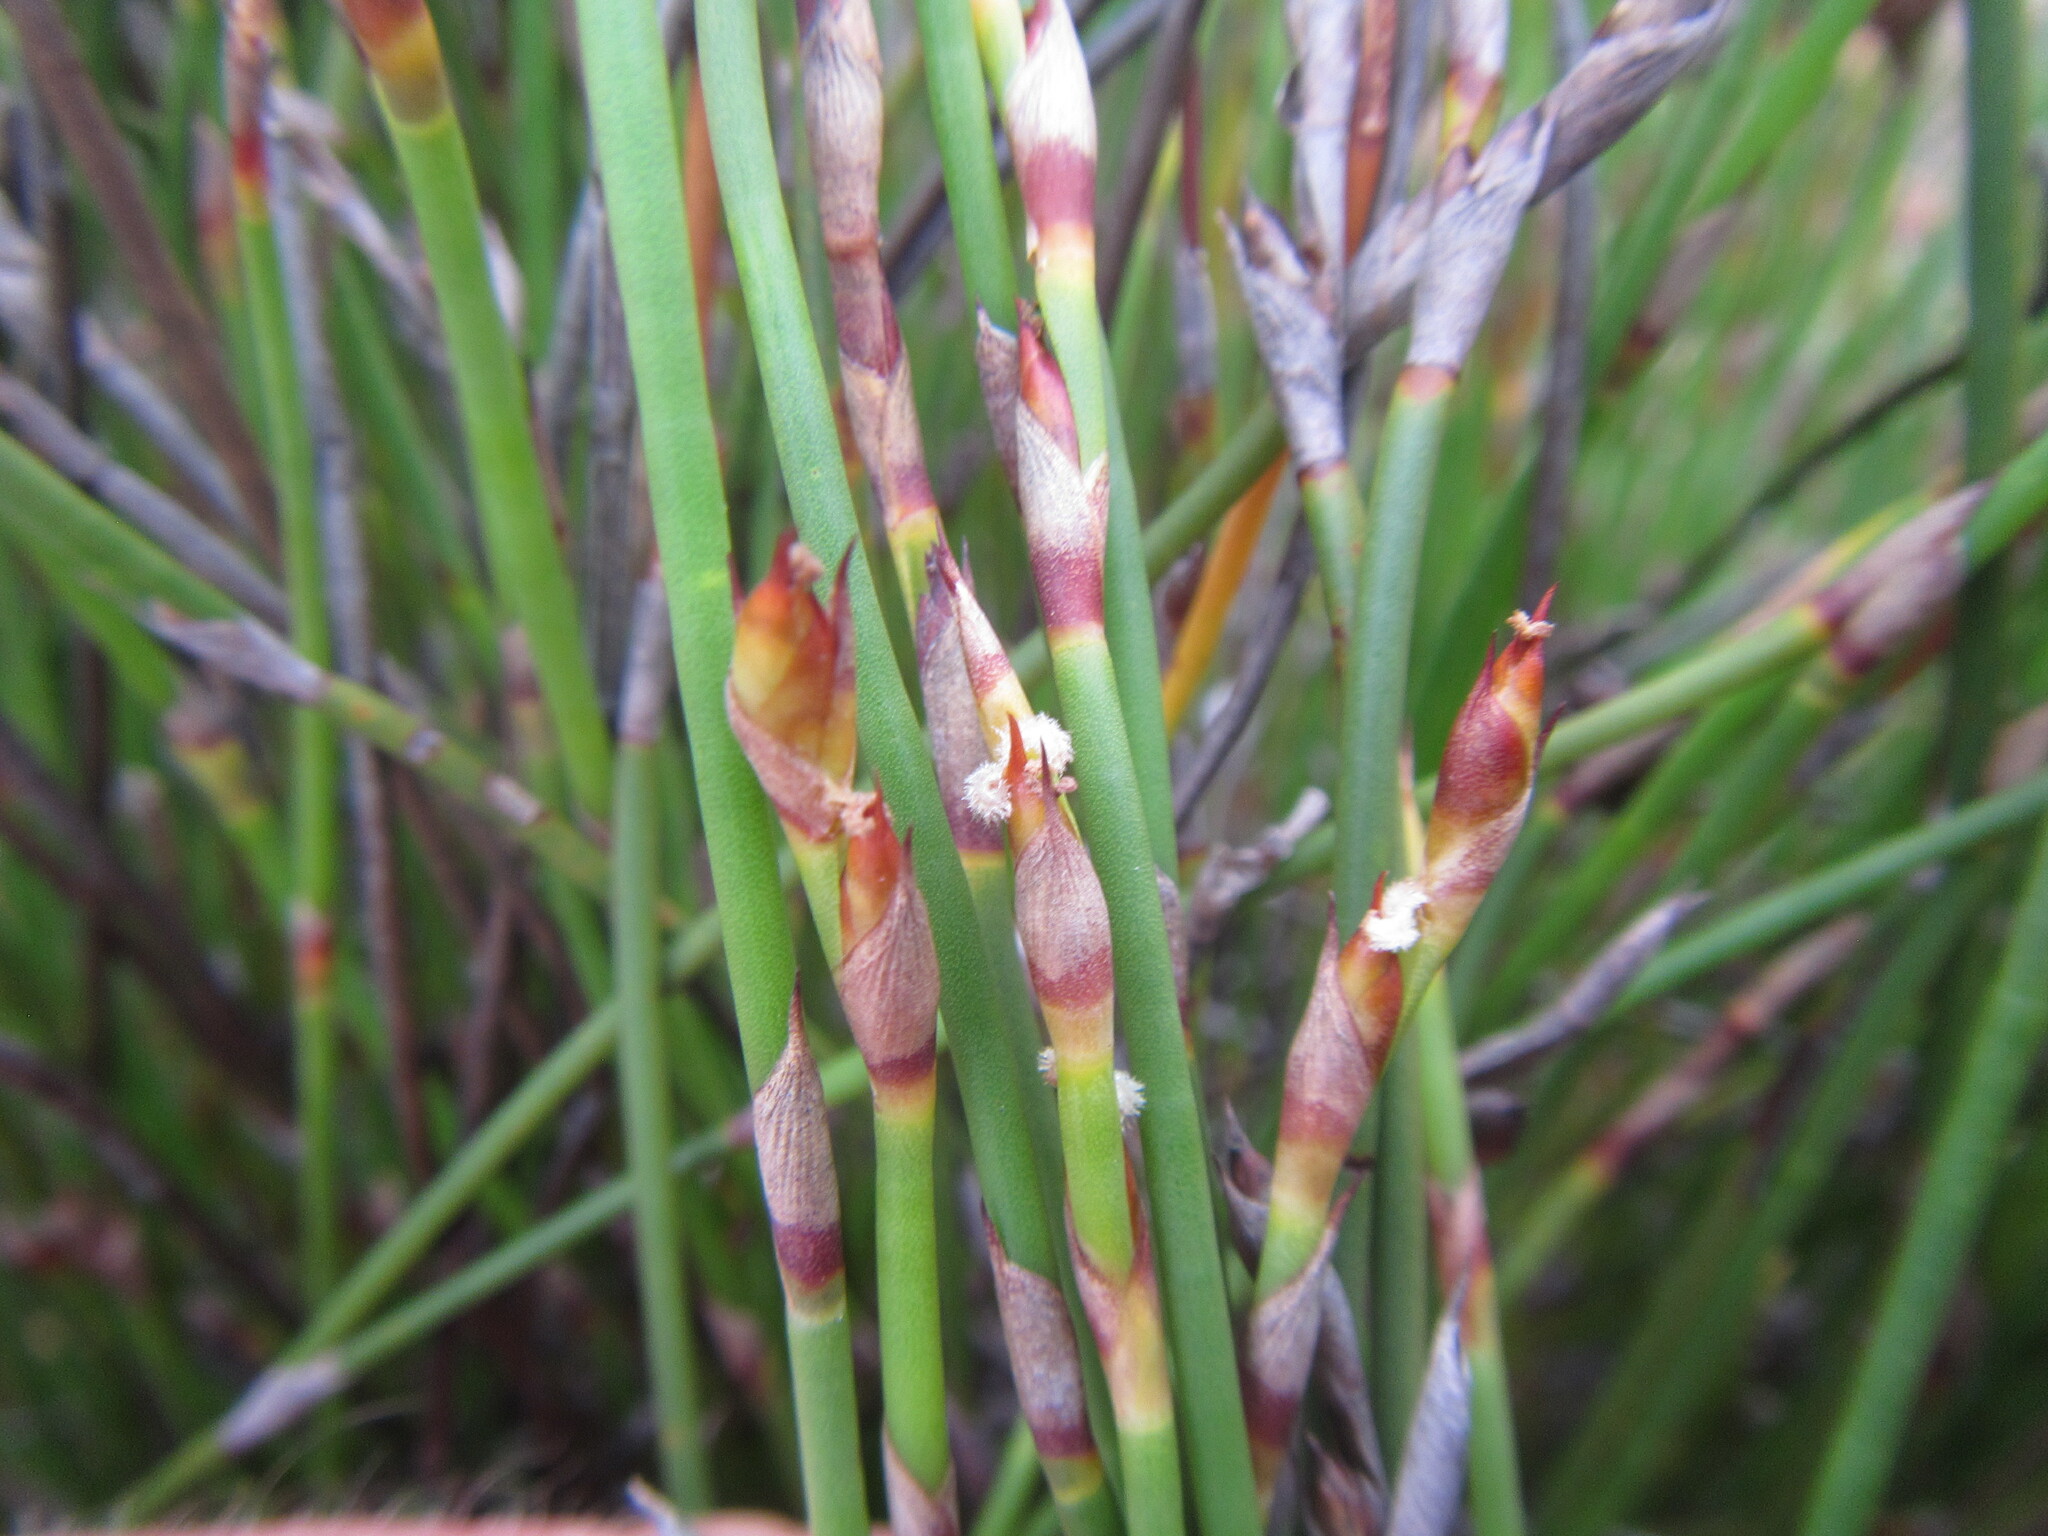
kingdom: Plantae
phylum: Tracheophyta
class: Liliopsida
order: Poales
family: Restionaceae
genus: Mastersiella
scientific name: Mastersiella digitata
